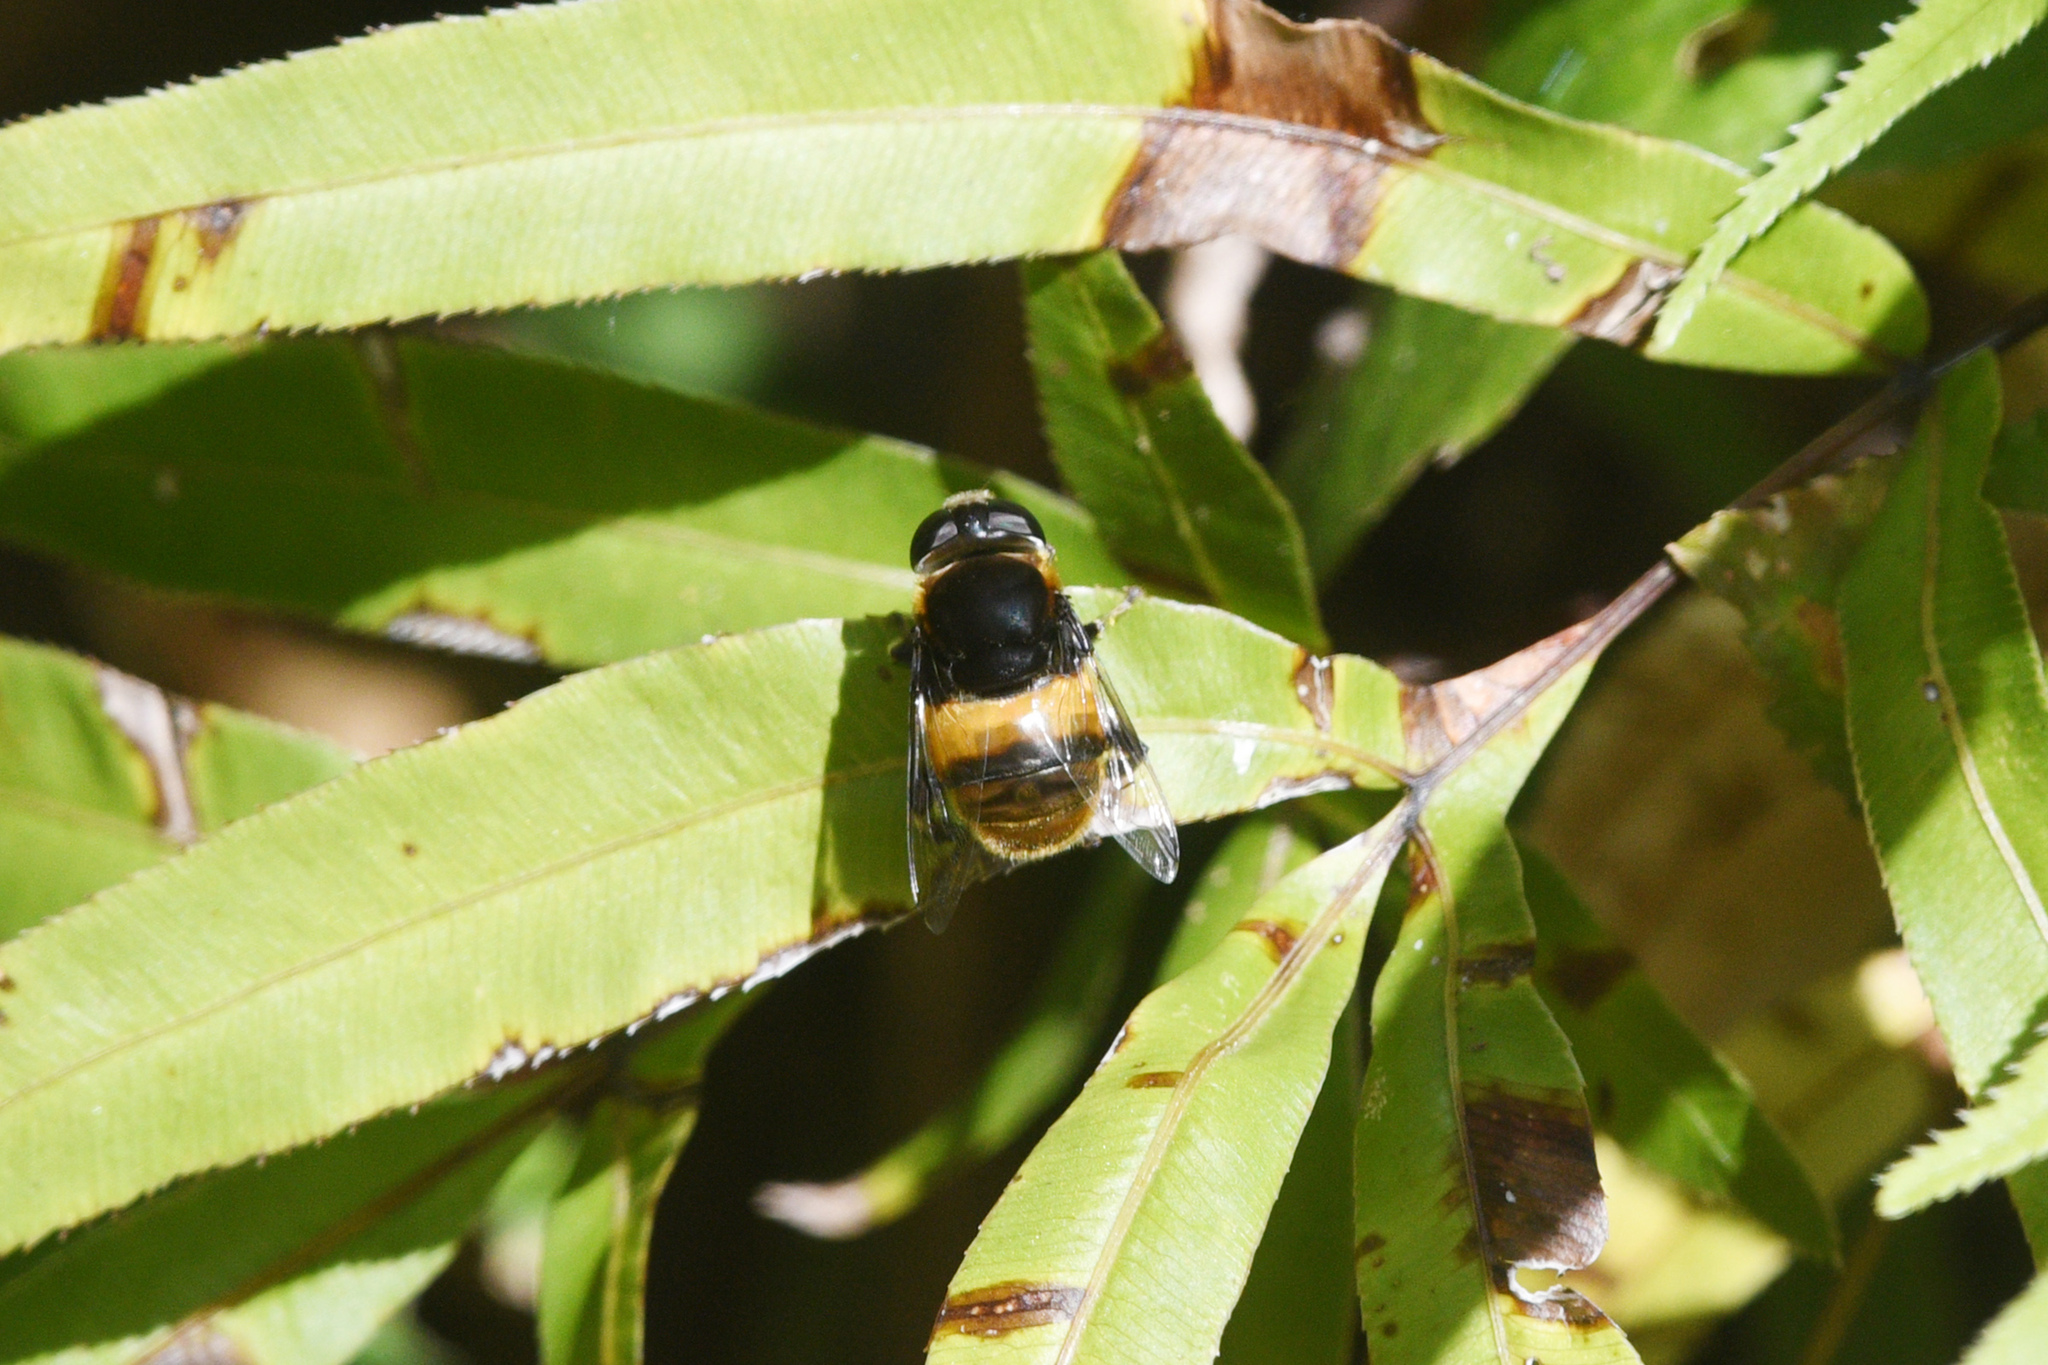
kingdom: Animalia
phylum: Arthropoda
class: Insecta
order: Diptera
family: Syrphidae
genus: Phytomia
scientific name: Phytomia zonata
